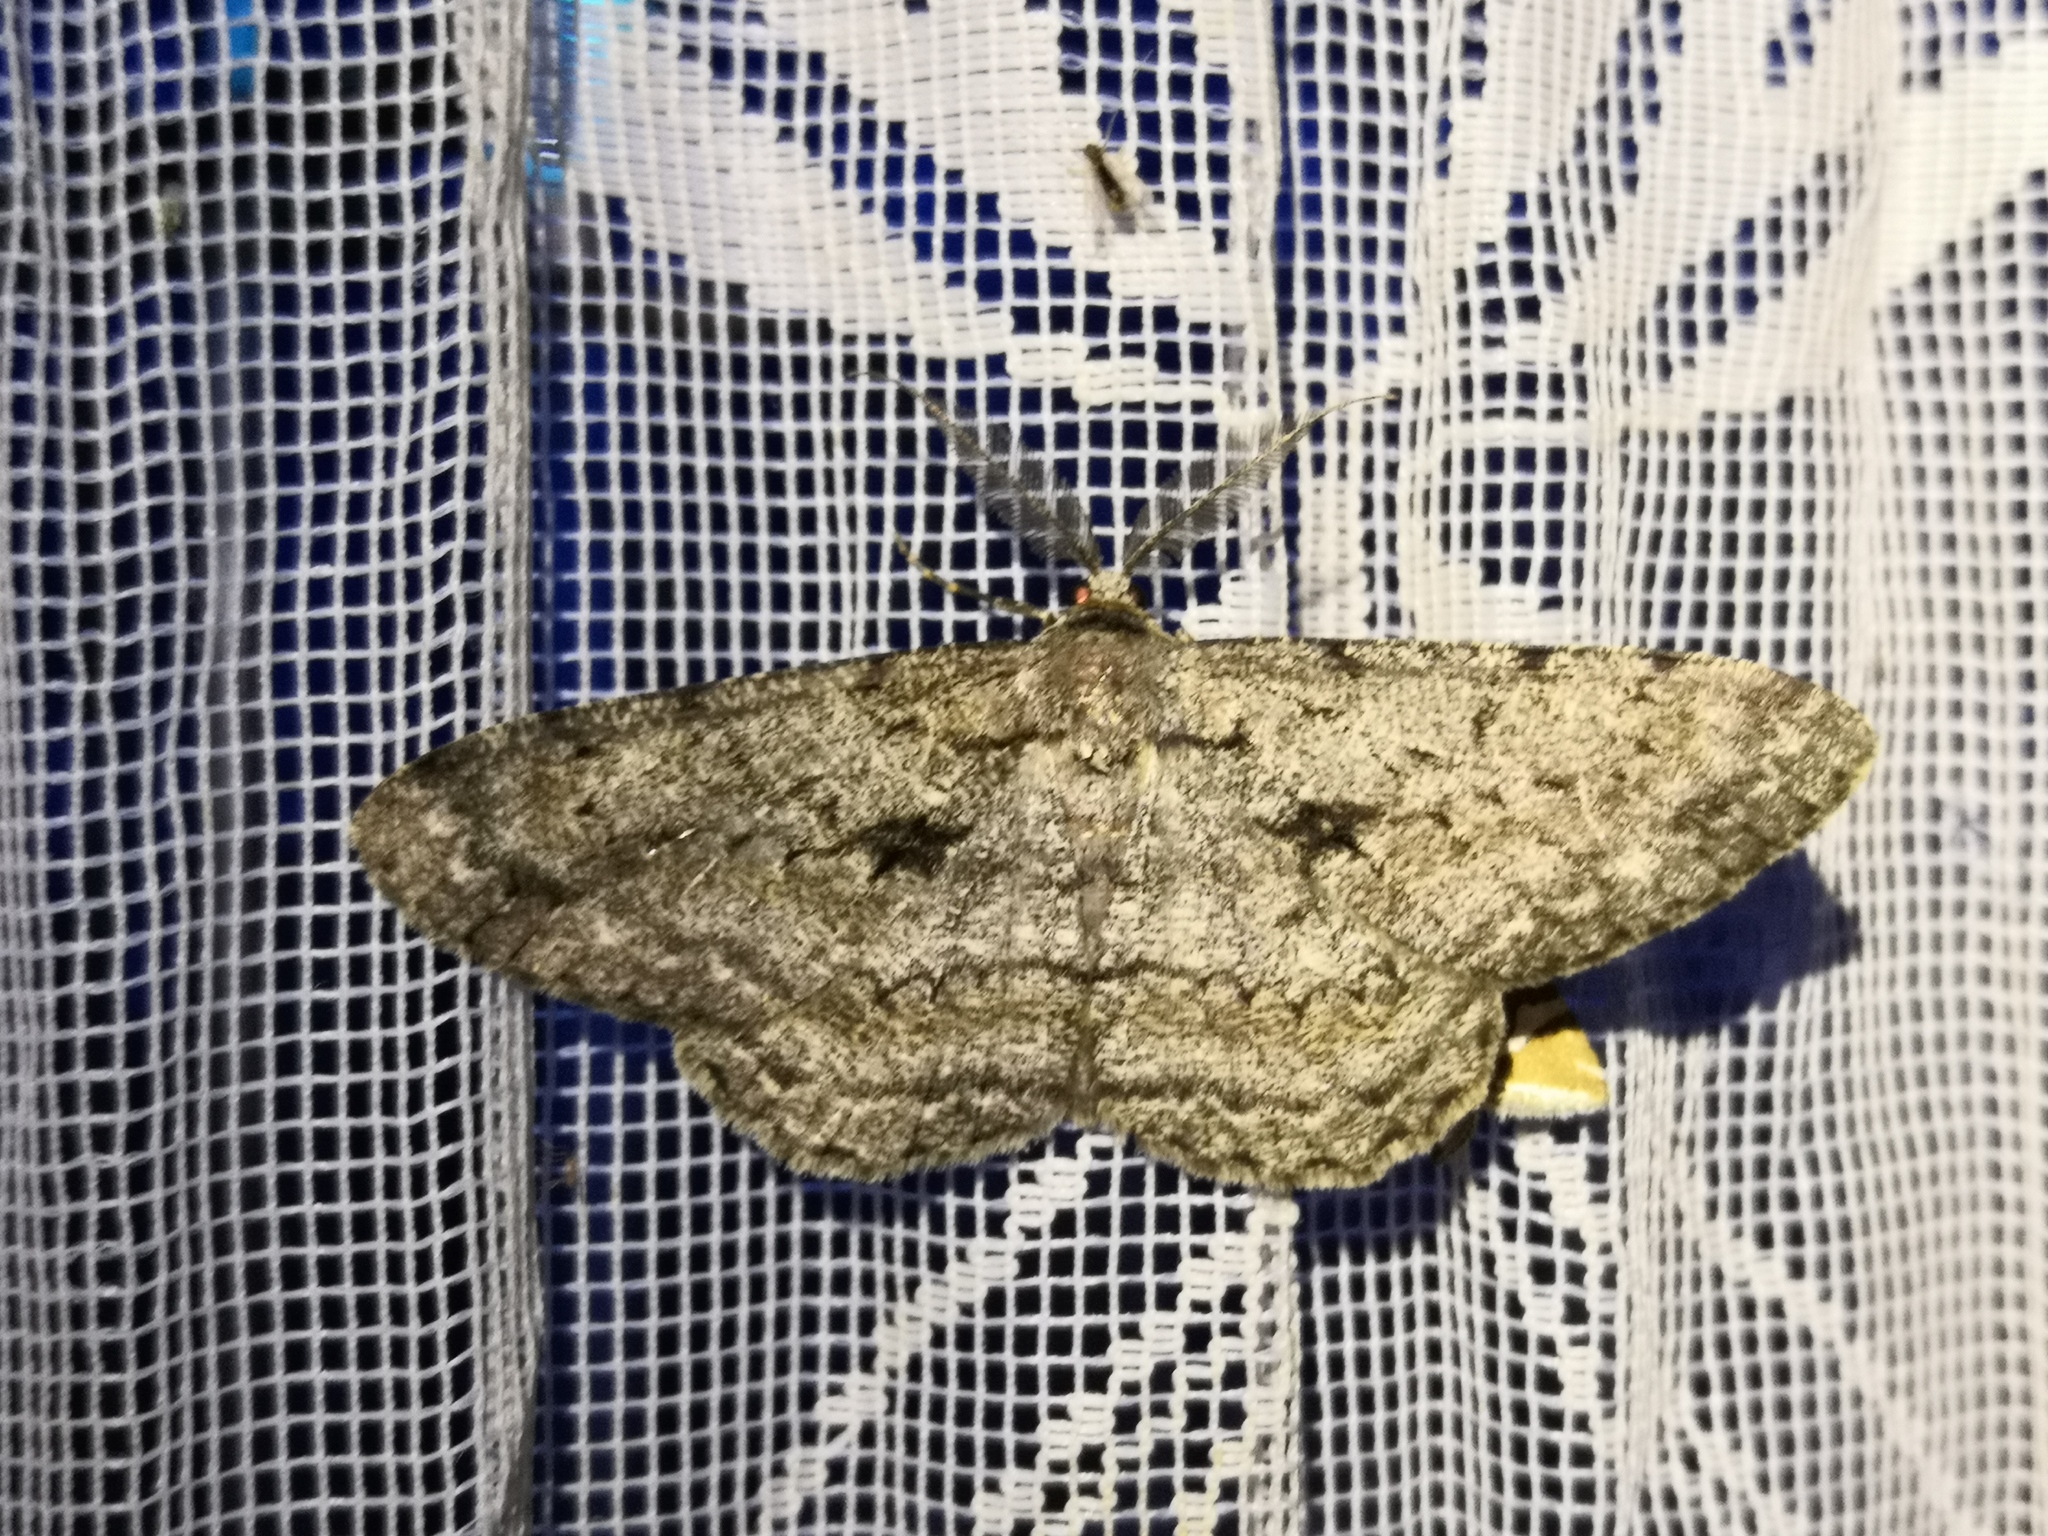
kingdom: Animalia
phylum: Arthropoda
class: Insecta
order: Lepidoptera
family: Geometridae
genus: Hypomecis
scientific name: Hypomecis roboraria
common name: Great oak beauty
